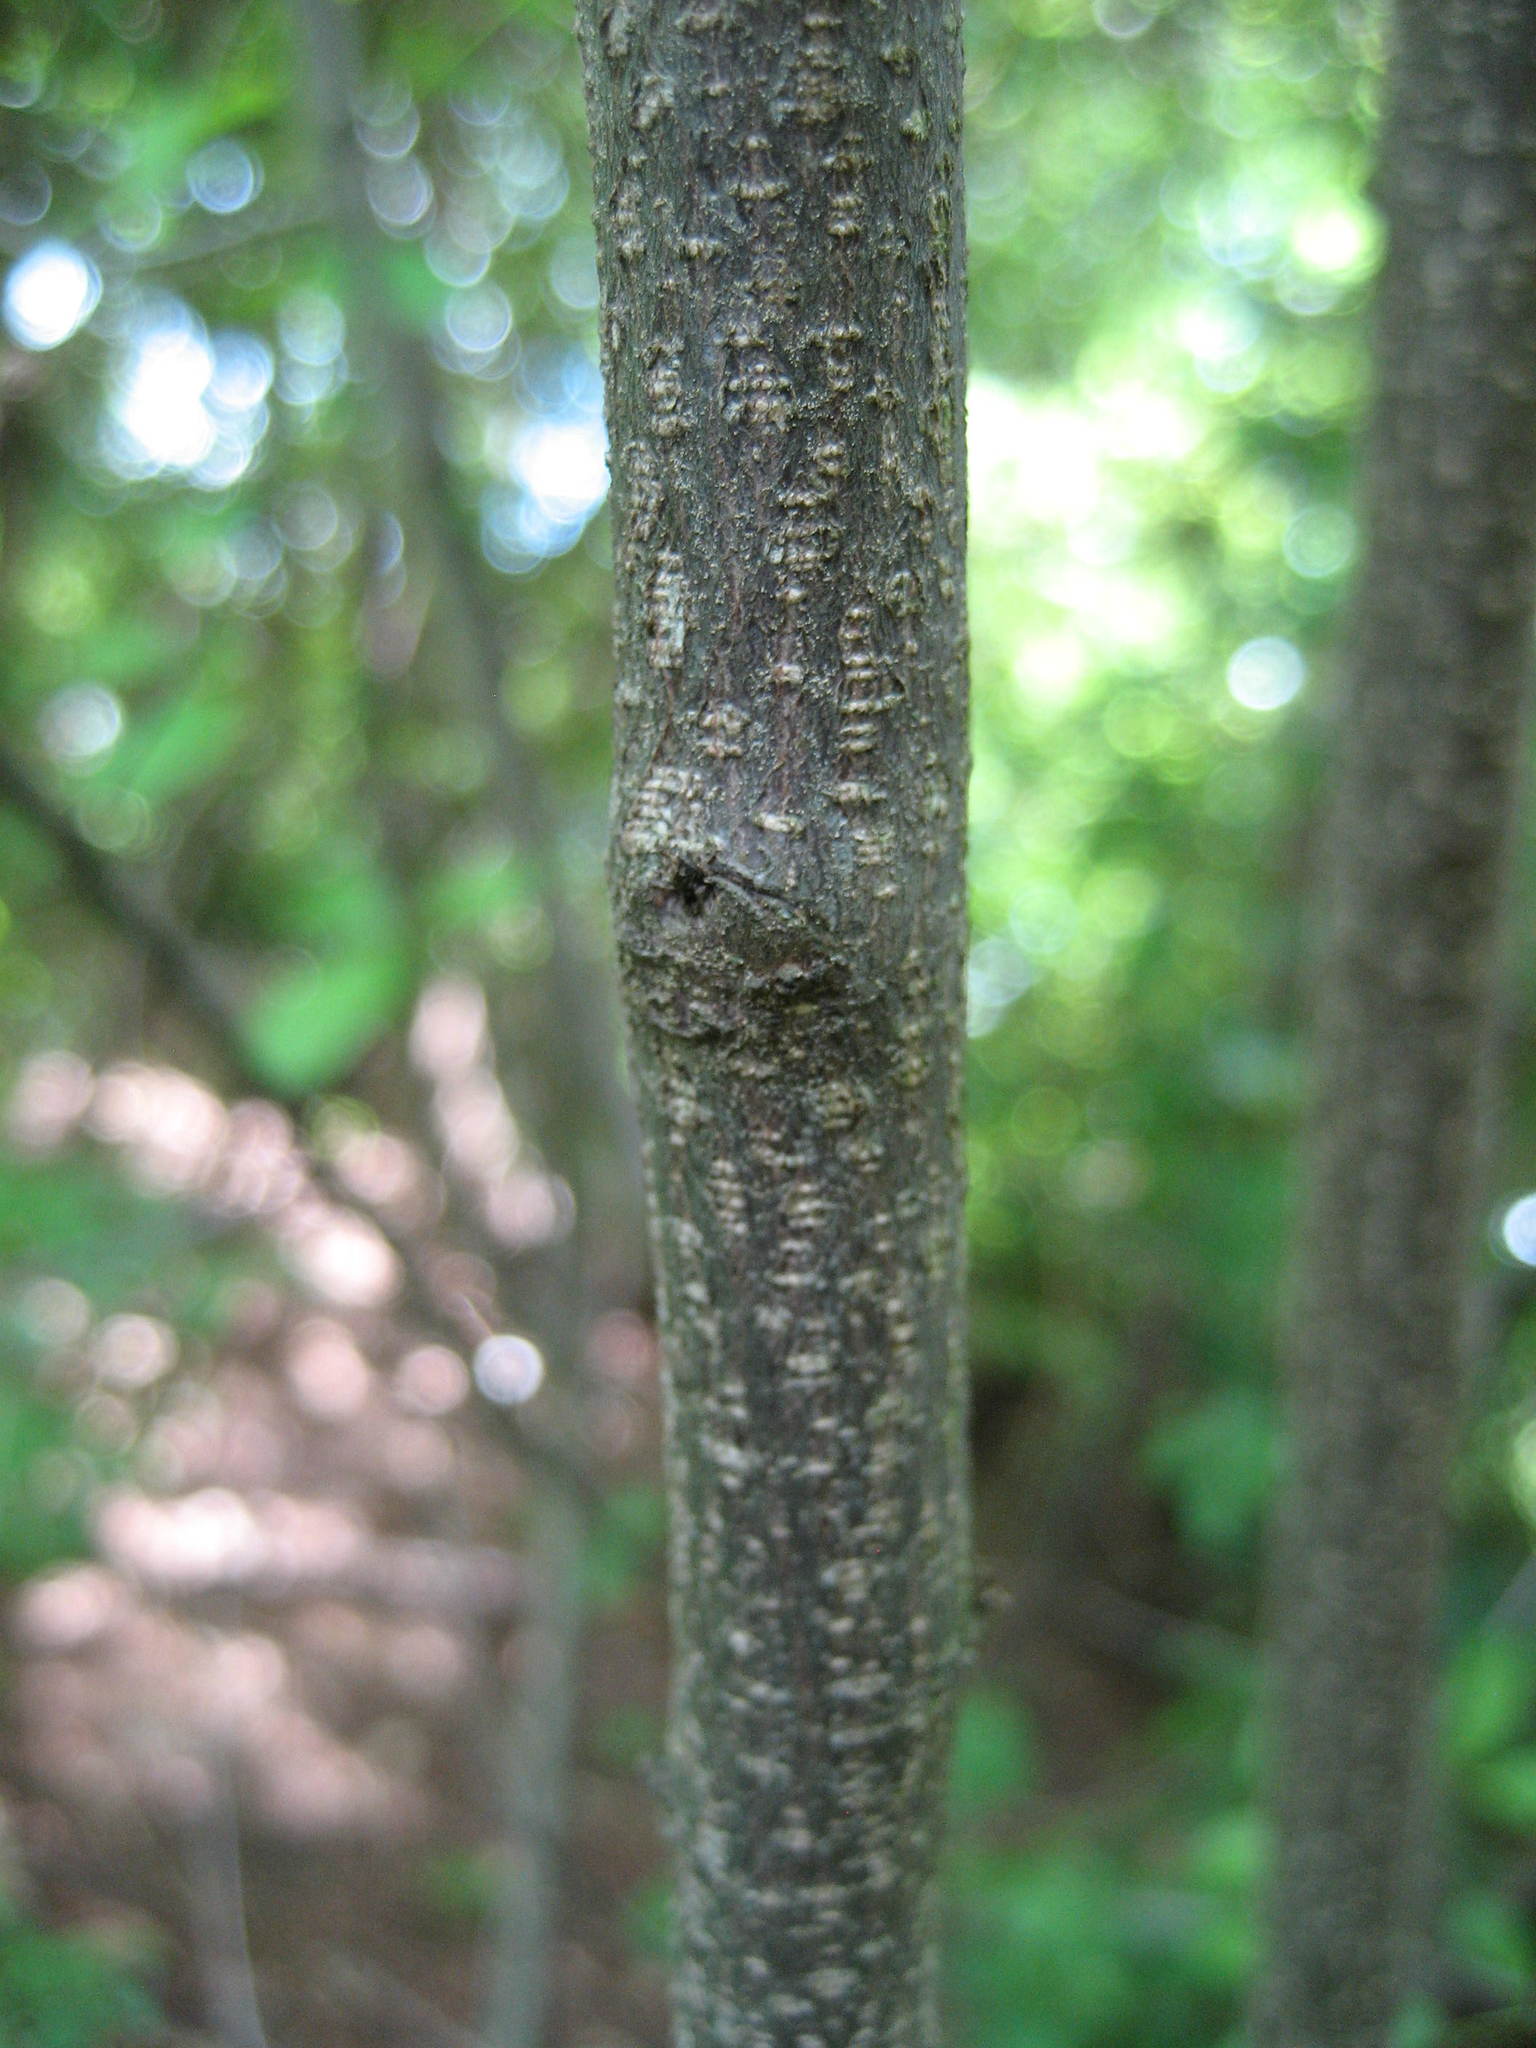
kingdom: Plantae
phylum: Tracheophyta
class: Magnoliopsida
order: Rosales
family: Rhamnaceae
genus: Frangula
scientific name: Frangula alnus
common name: Alder buckthorn
